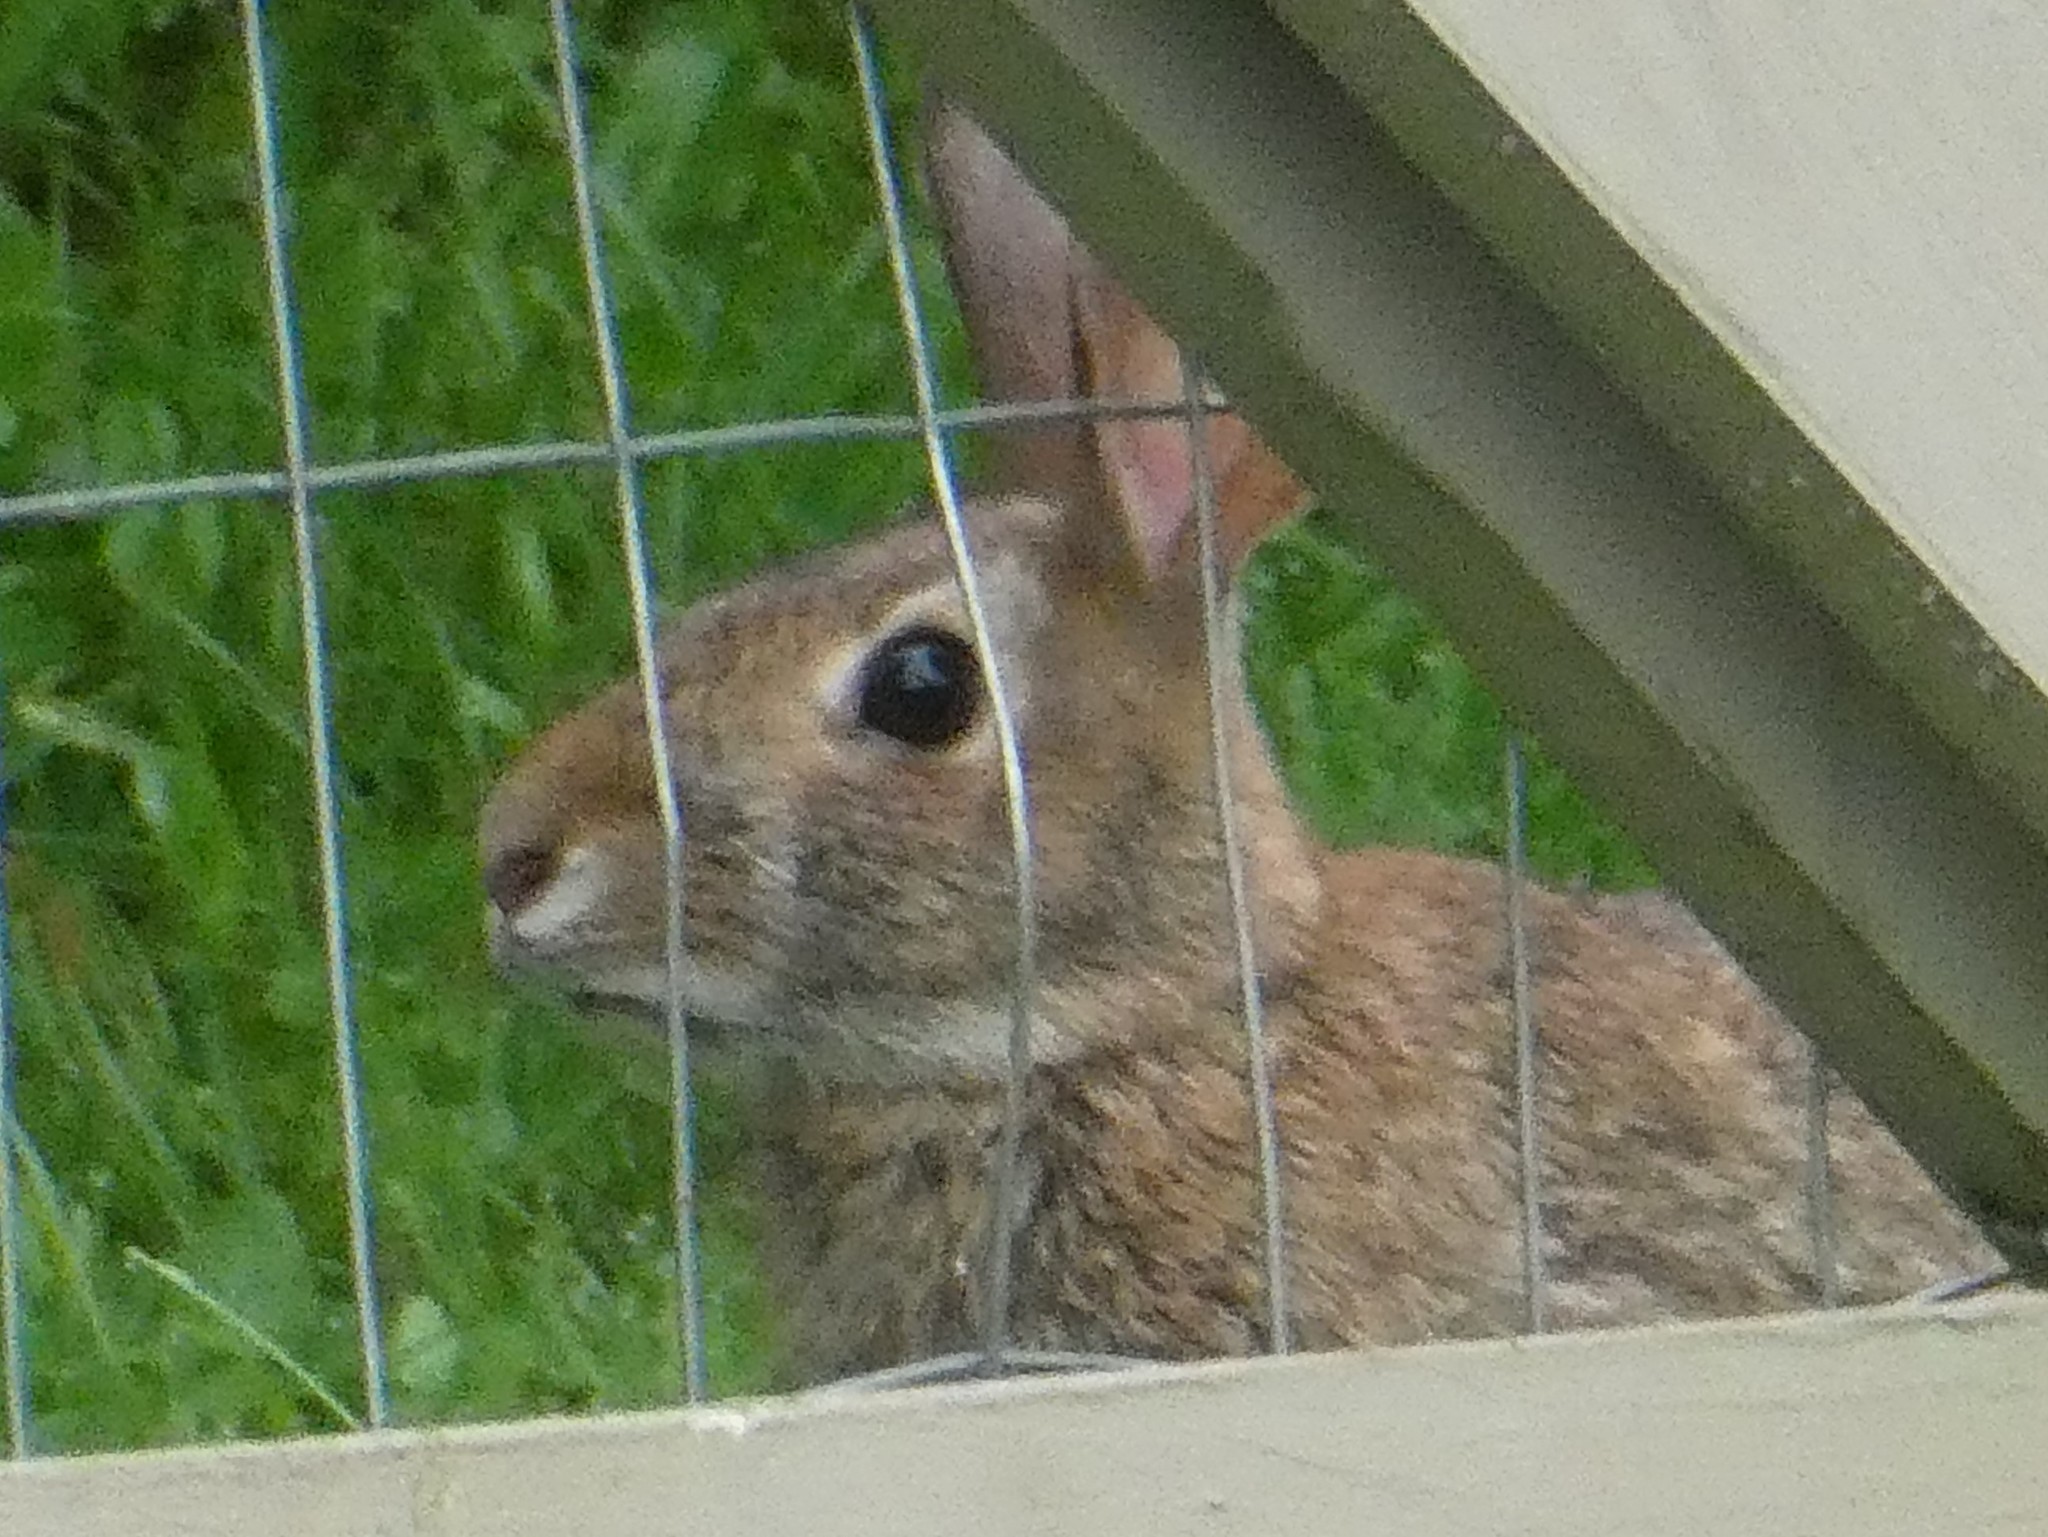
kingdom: Animalia
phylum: Chordata
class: Mammalia
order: Lagomorpha
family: Leporidae
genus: Sylvilagus
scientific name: Sylvilagus floridanus
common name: Eastern cottontail
